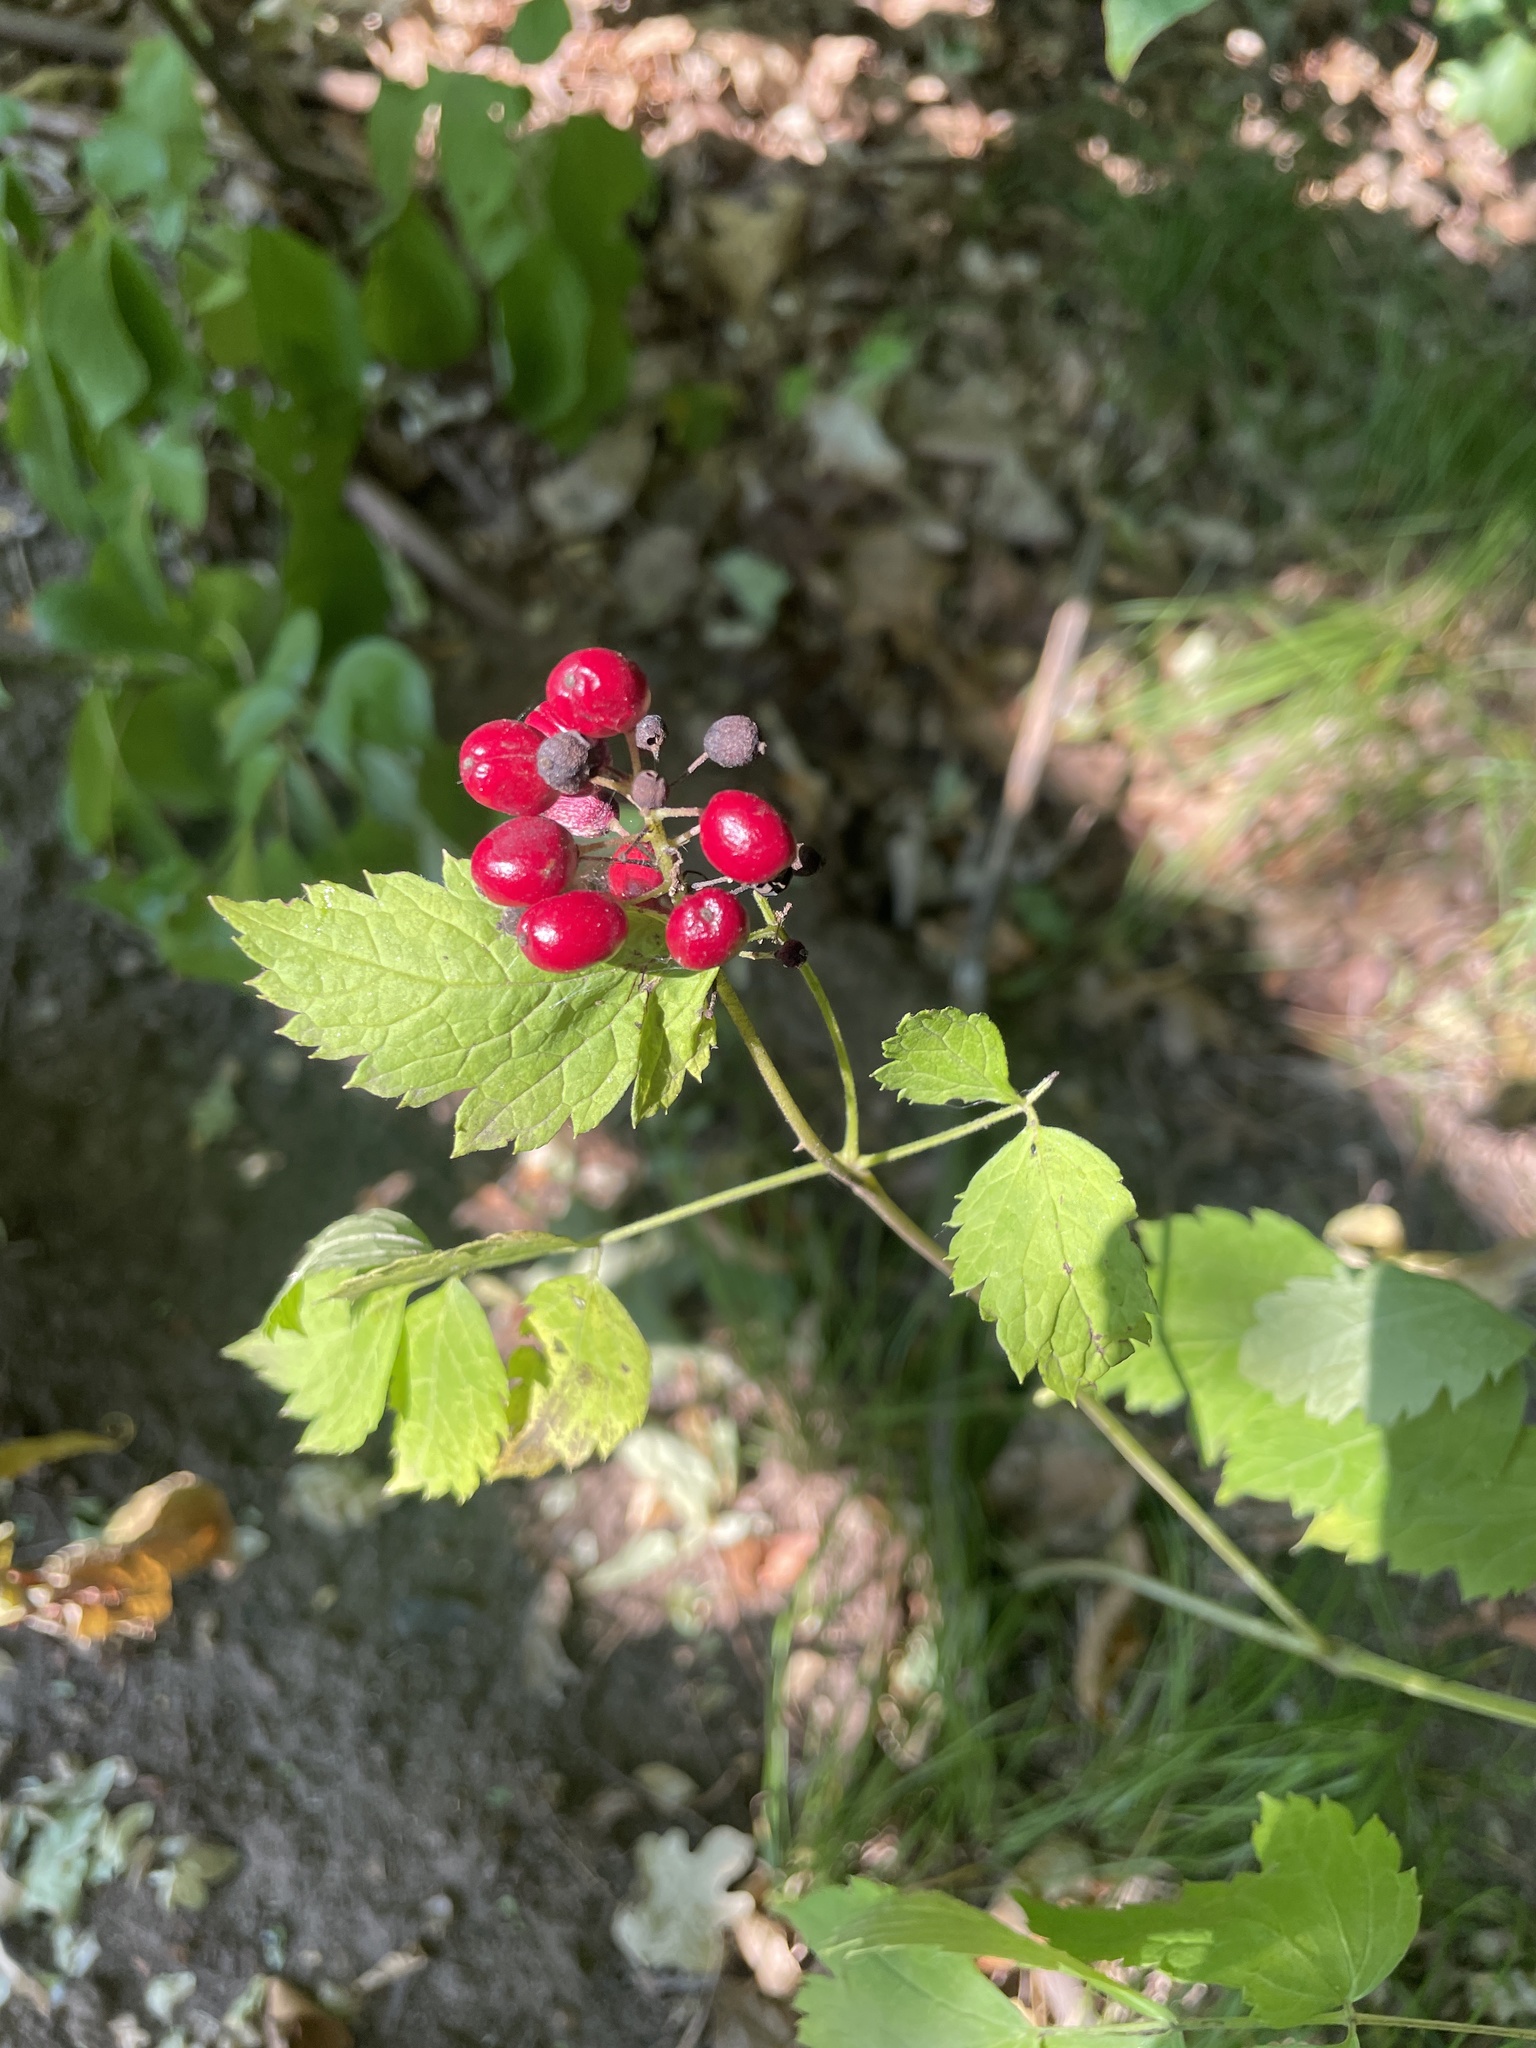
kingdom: Plantae
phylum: Tracheophyta
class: Magnoliopsida
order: Ranunculales
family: Ranunculaceae
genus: Actaea
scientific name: Actaea rubra
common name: Red baneberry
